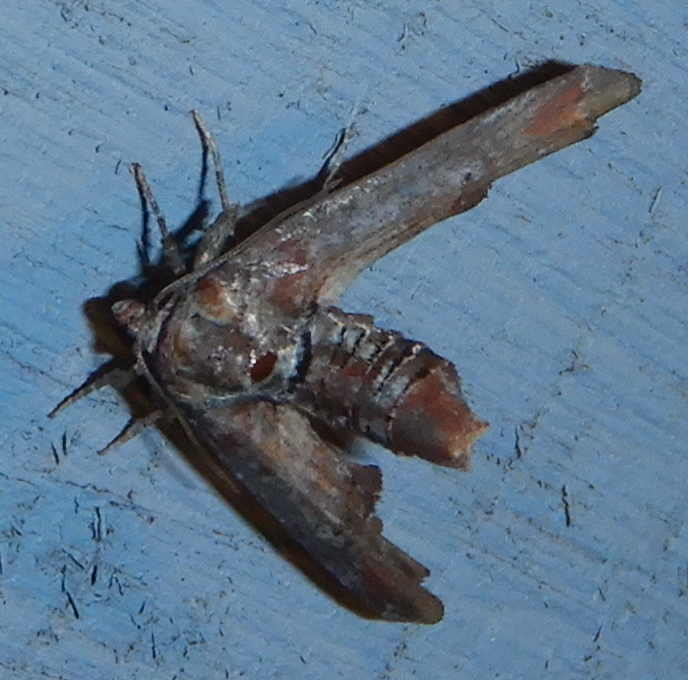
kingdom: Animalia
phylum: Arthropoda
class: Insecta
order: Lepidoptera
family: Euteliidae
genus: Marathyssa
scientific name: Marathyssa inficita
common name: Dark marathyssa moth
